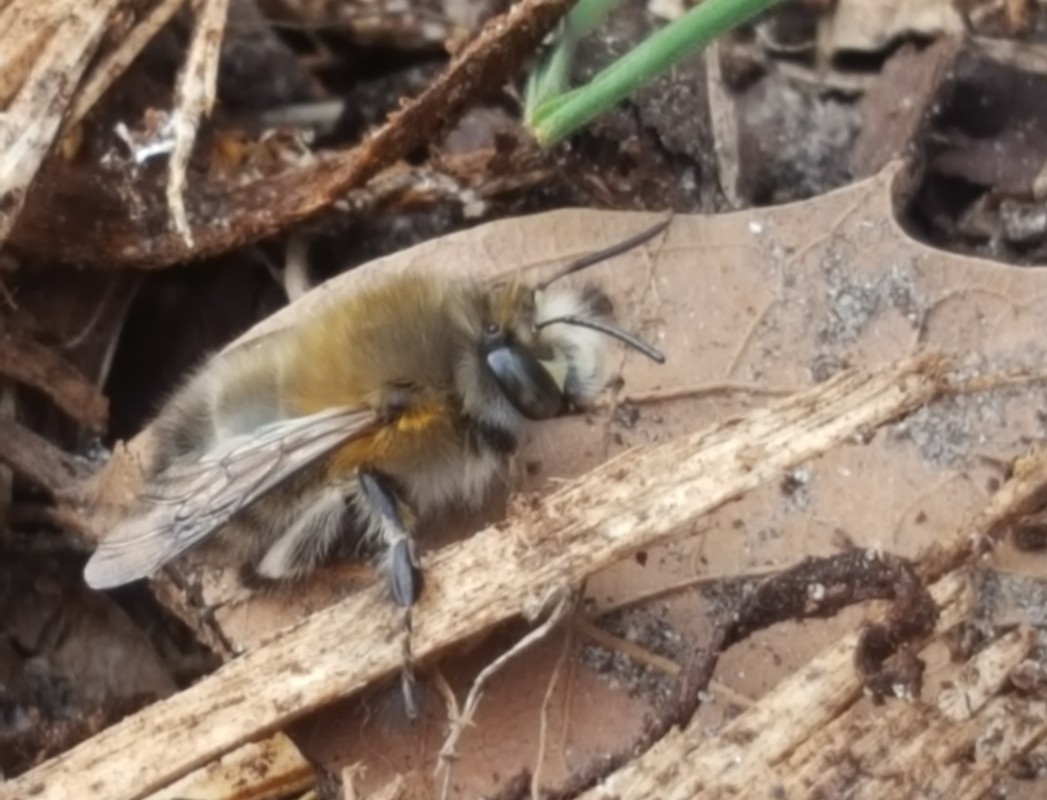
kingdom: Animalia
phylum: Arthropoda
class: Insecta
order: Hymenoptera
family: Apidae
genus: Anthophora
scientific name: Anthophora plumipes
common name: Hairy-footed flower bee
